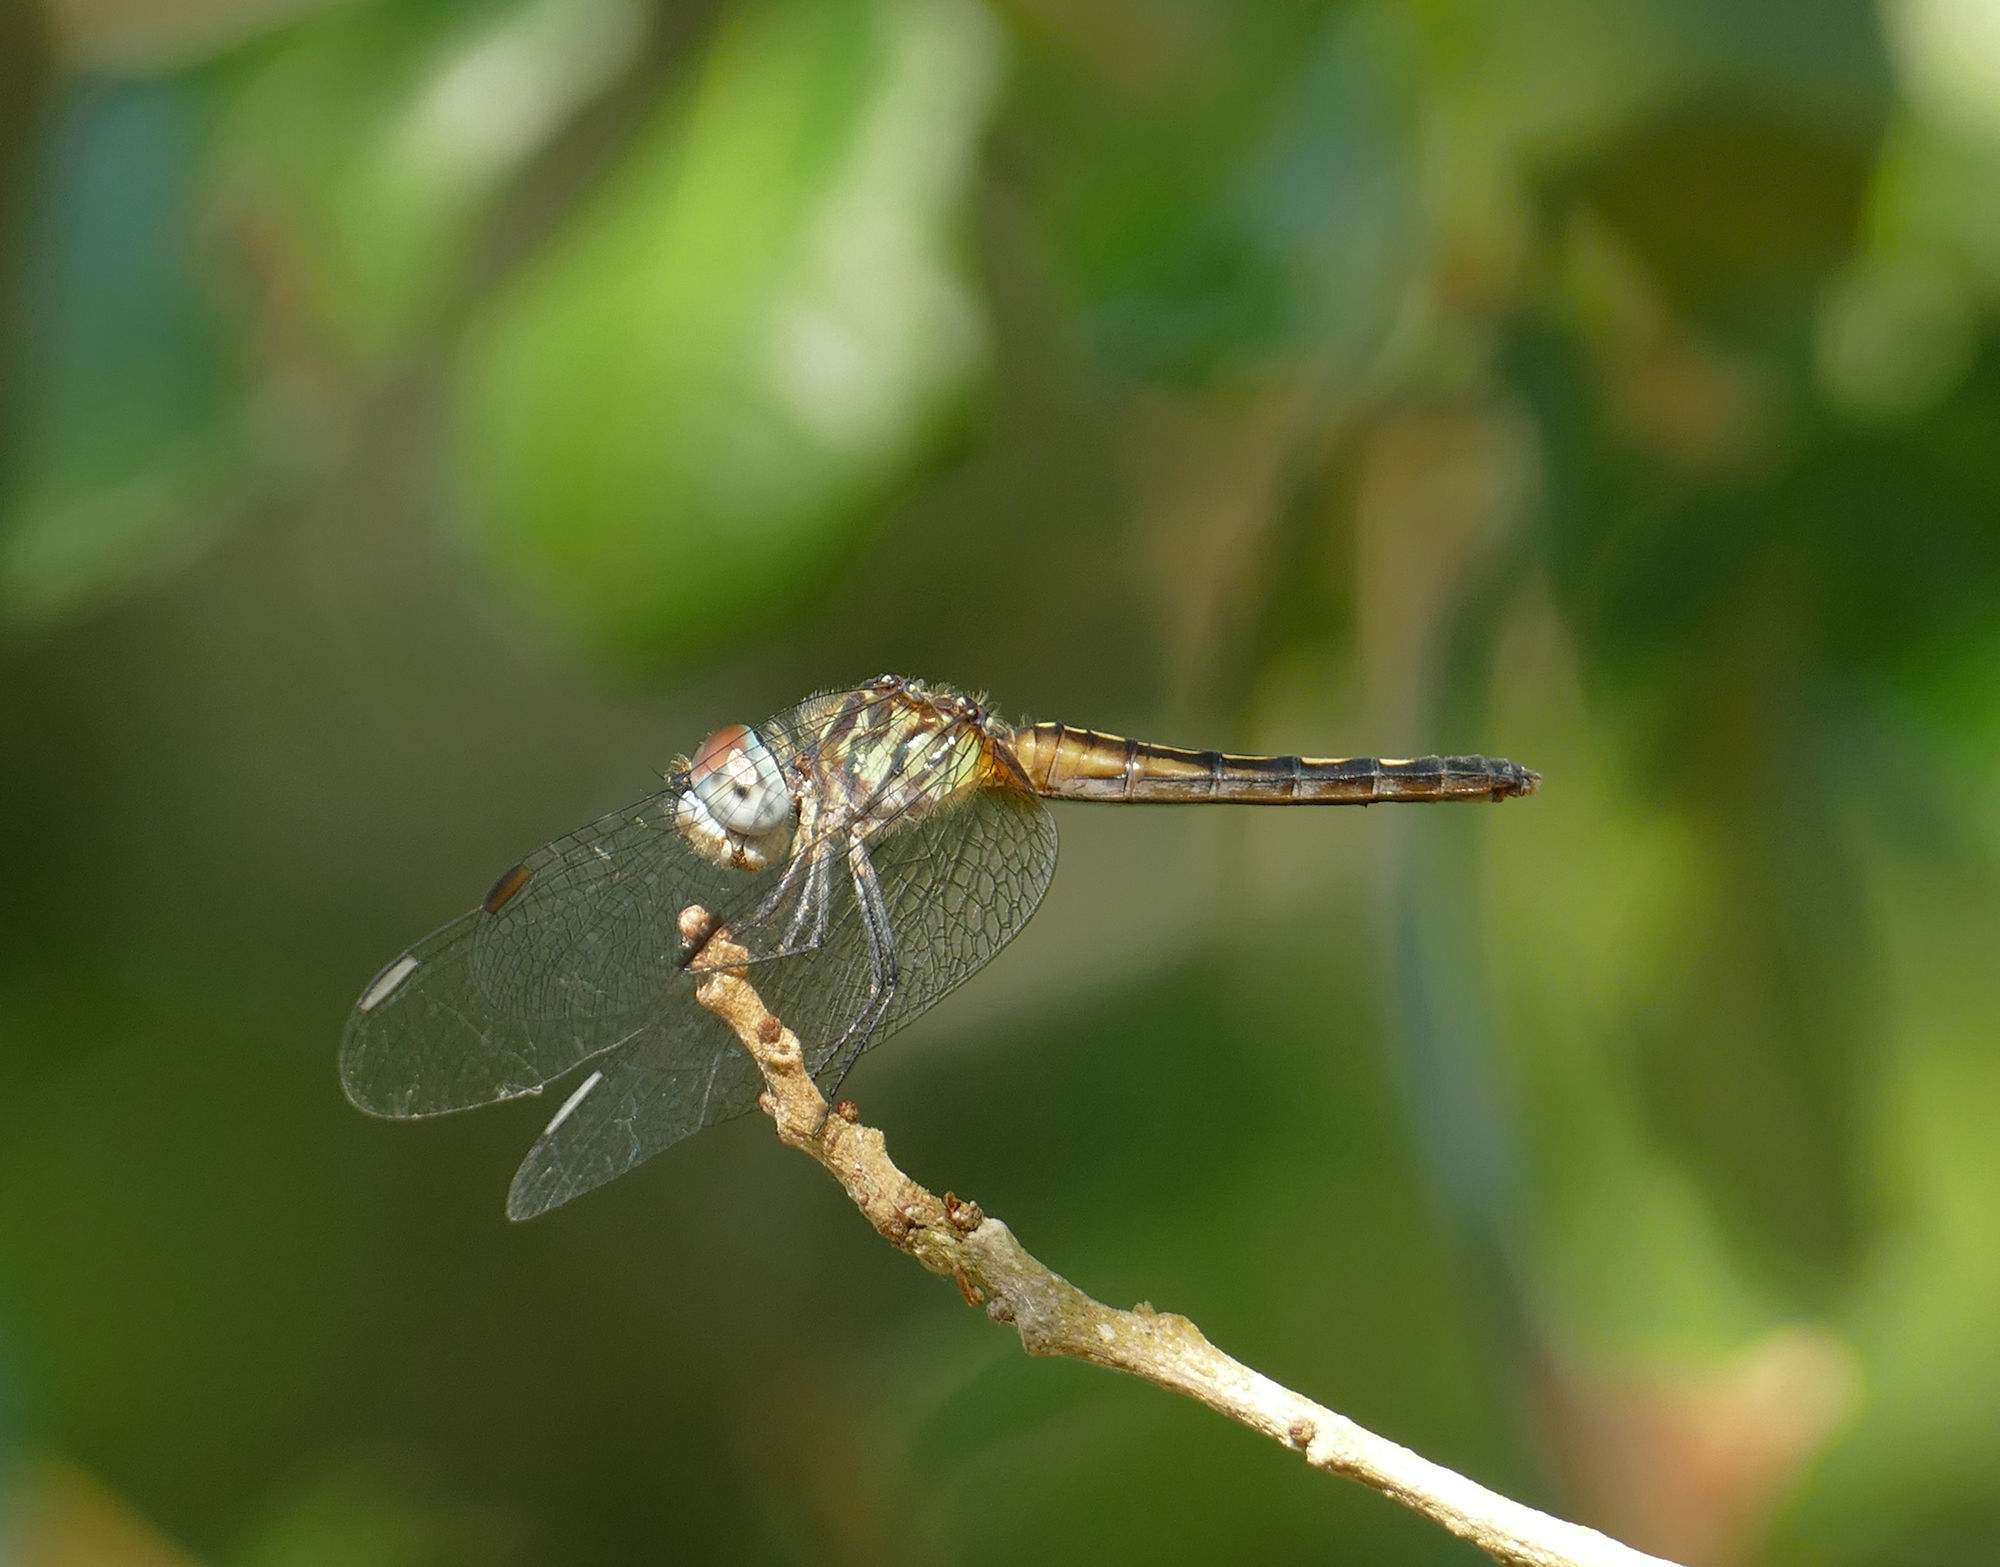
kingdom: Animalia
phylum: Arthropoda
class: Insecta
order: Odonata
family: Libellulidae
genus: Pachydiplax
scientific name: Pachydiplax longipennis
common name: Blue dasher
